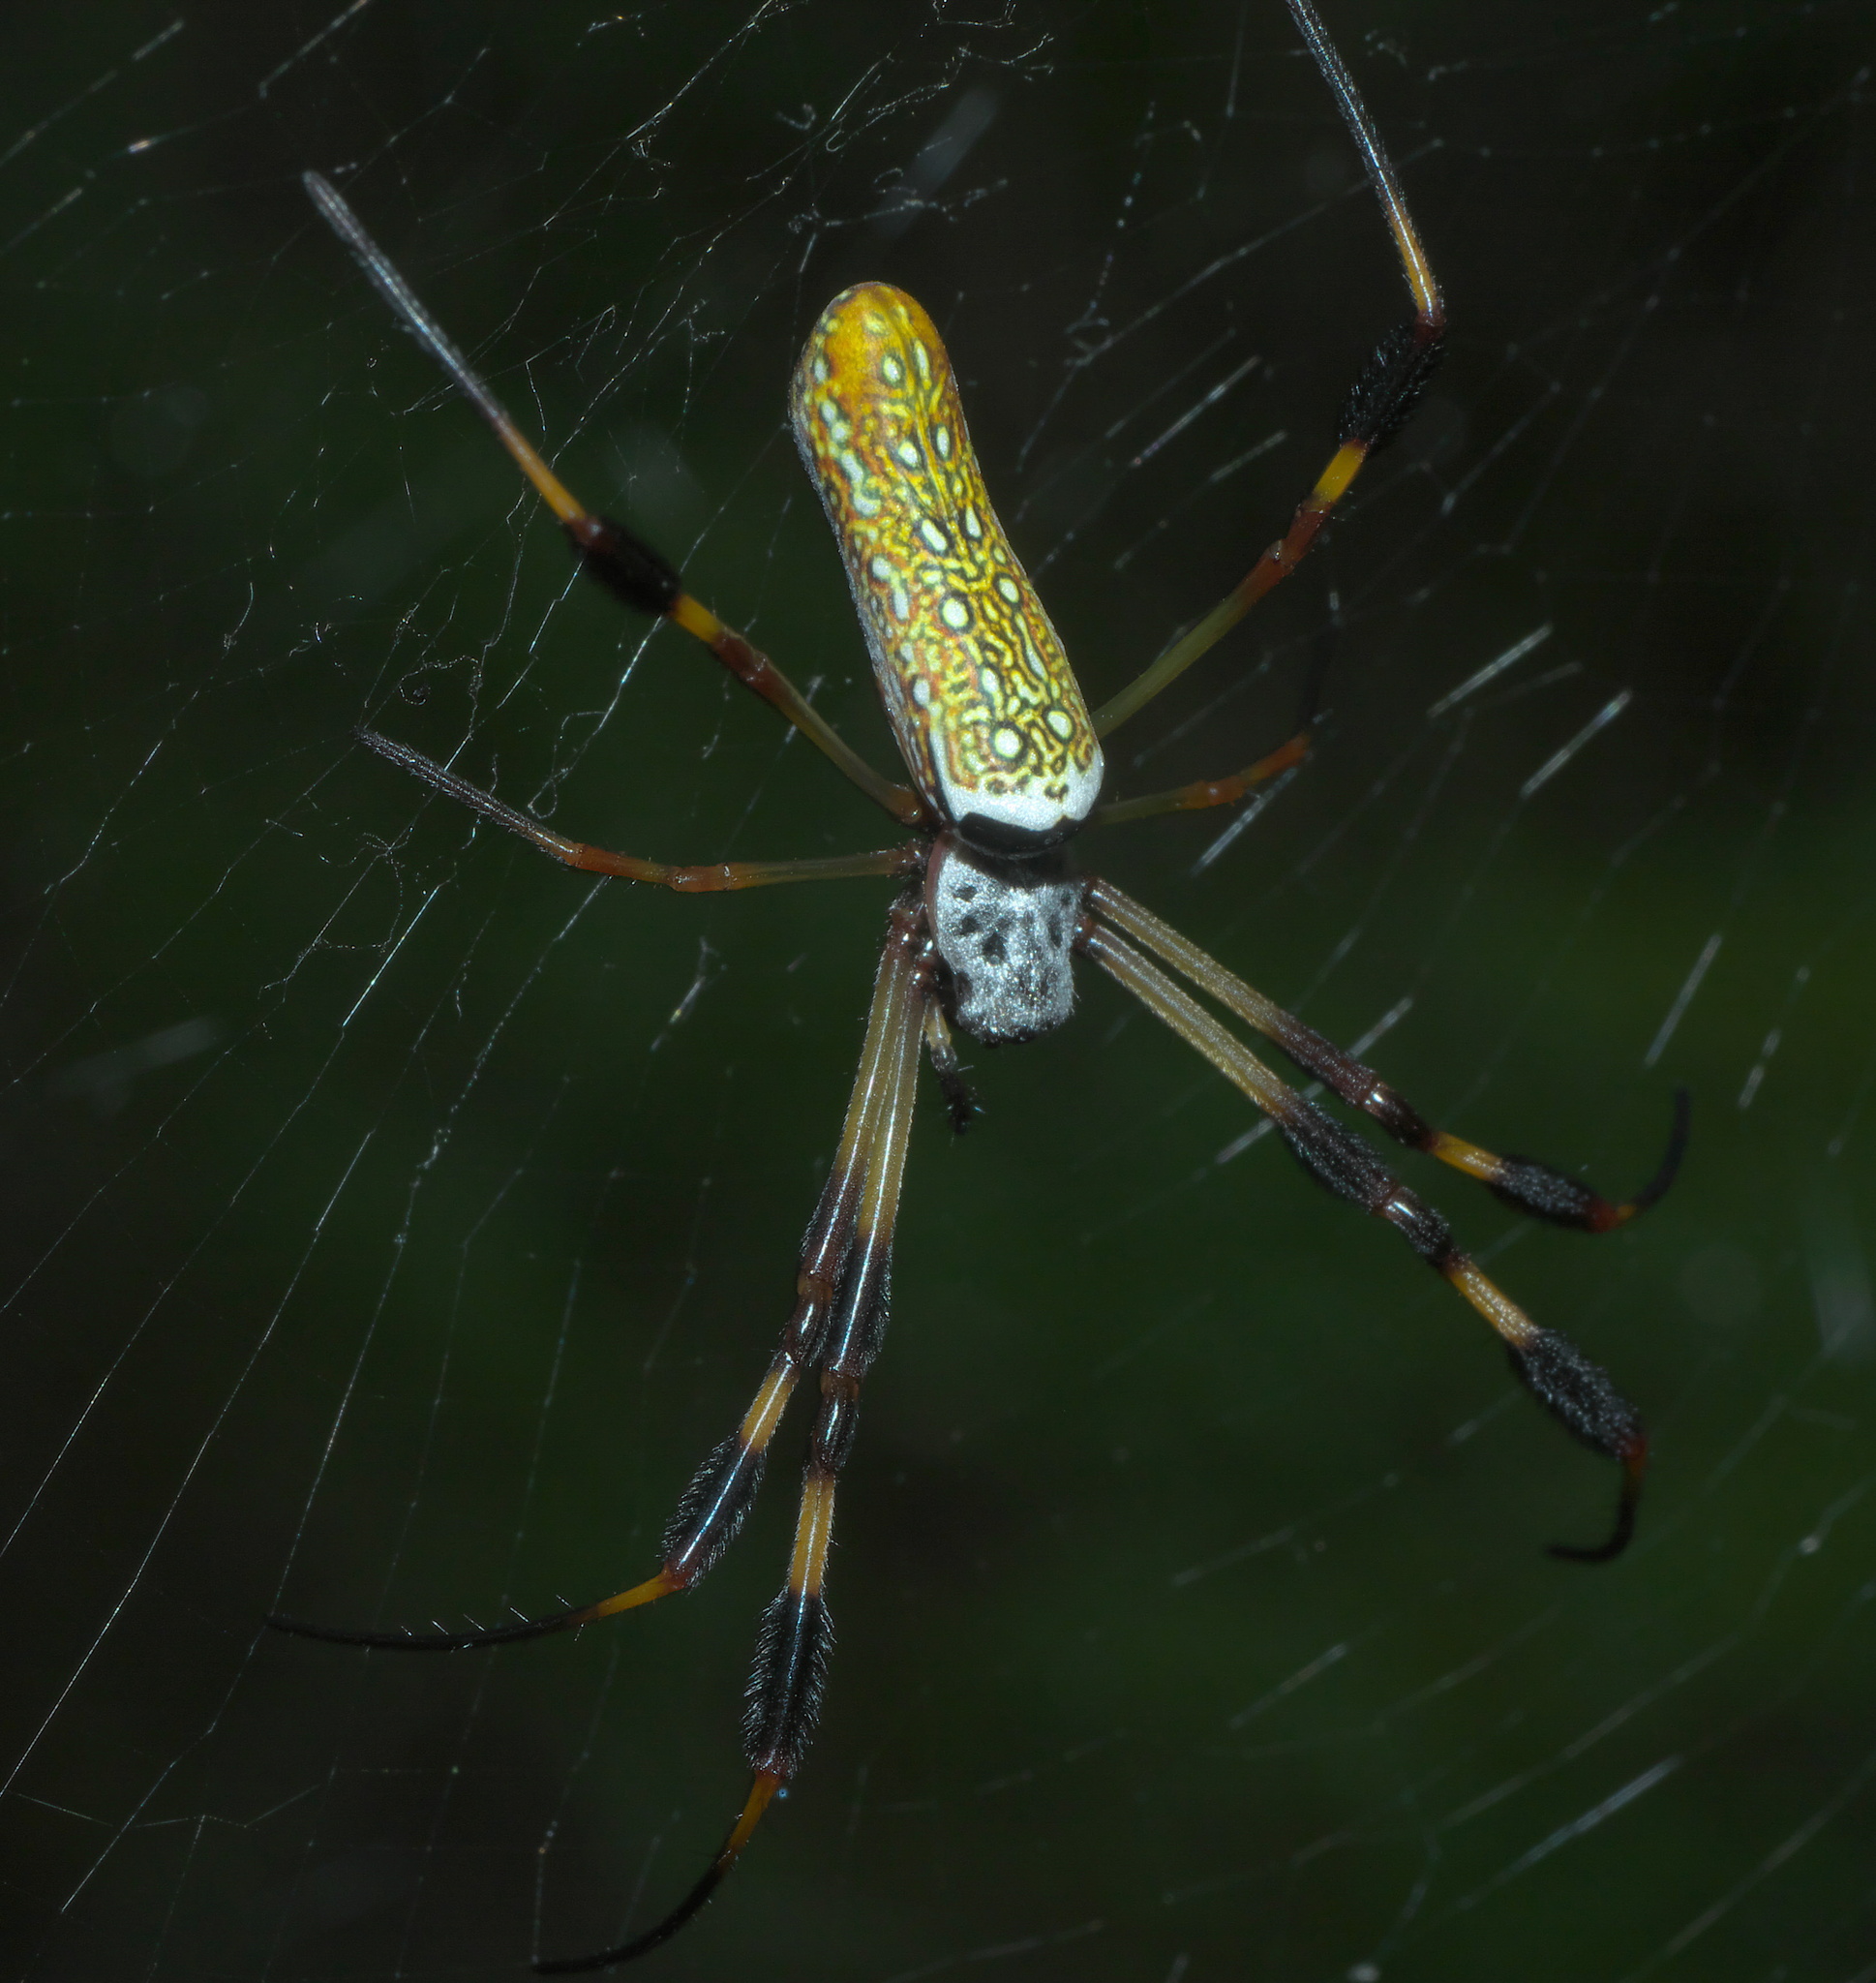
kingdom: Animalia
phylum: Arthropoda
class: Arachnida
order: Araneae
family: Araneidae
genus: Trichonephila
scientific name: Trichonephila clavipes
